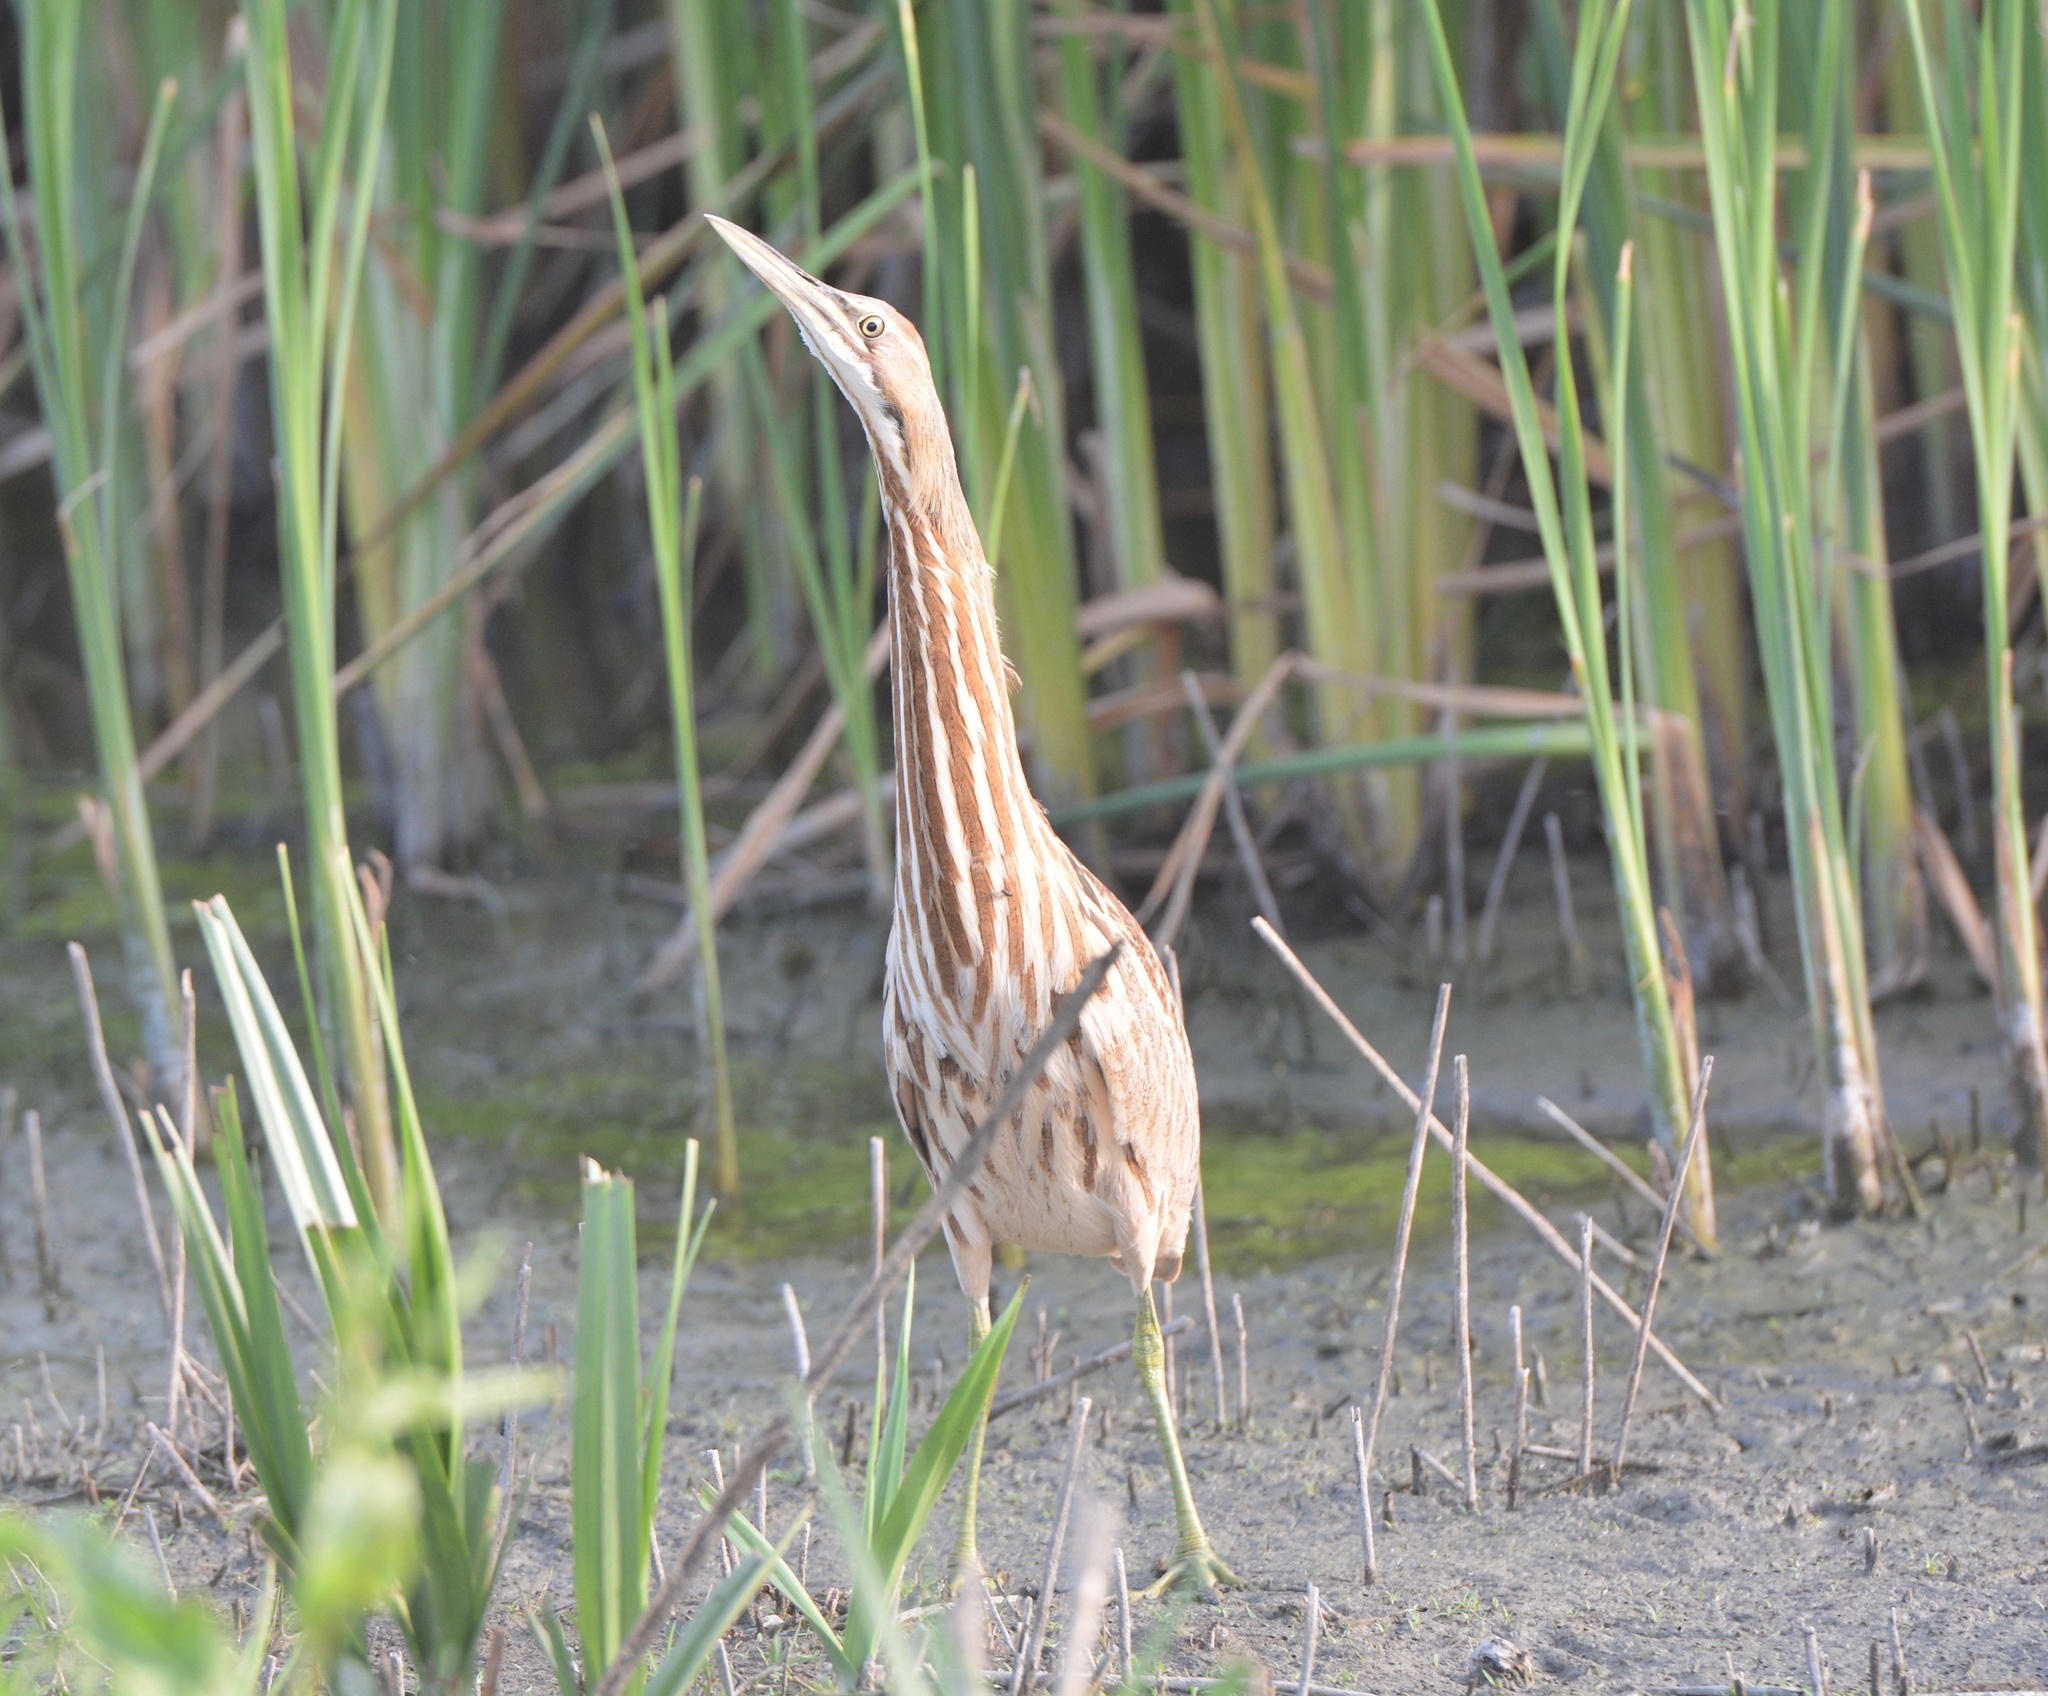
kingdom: Animalia
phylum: Chordata
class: Aves
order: Pelecaniformes
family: Ardeidae
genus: Botaurus
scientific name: Botaurus lentiginosus
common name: American bittern
